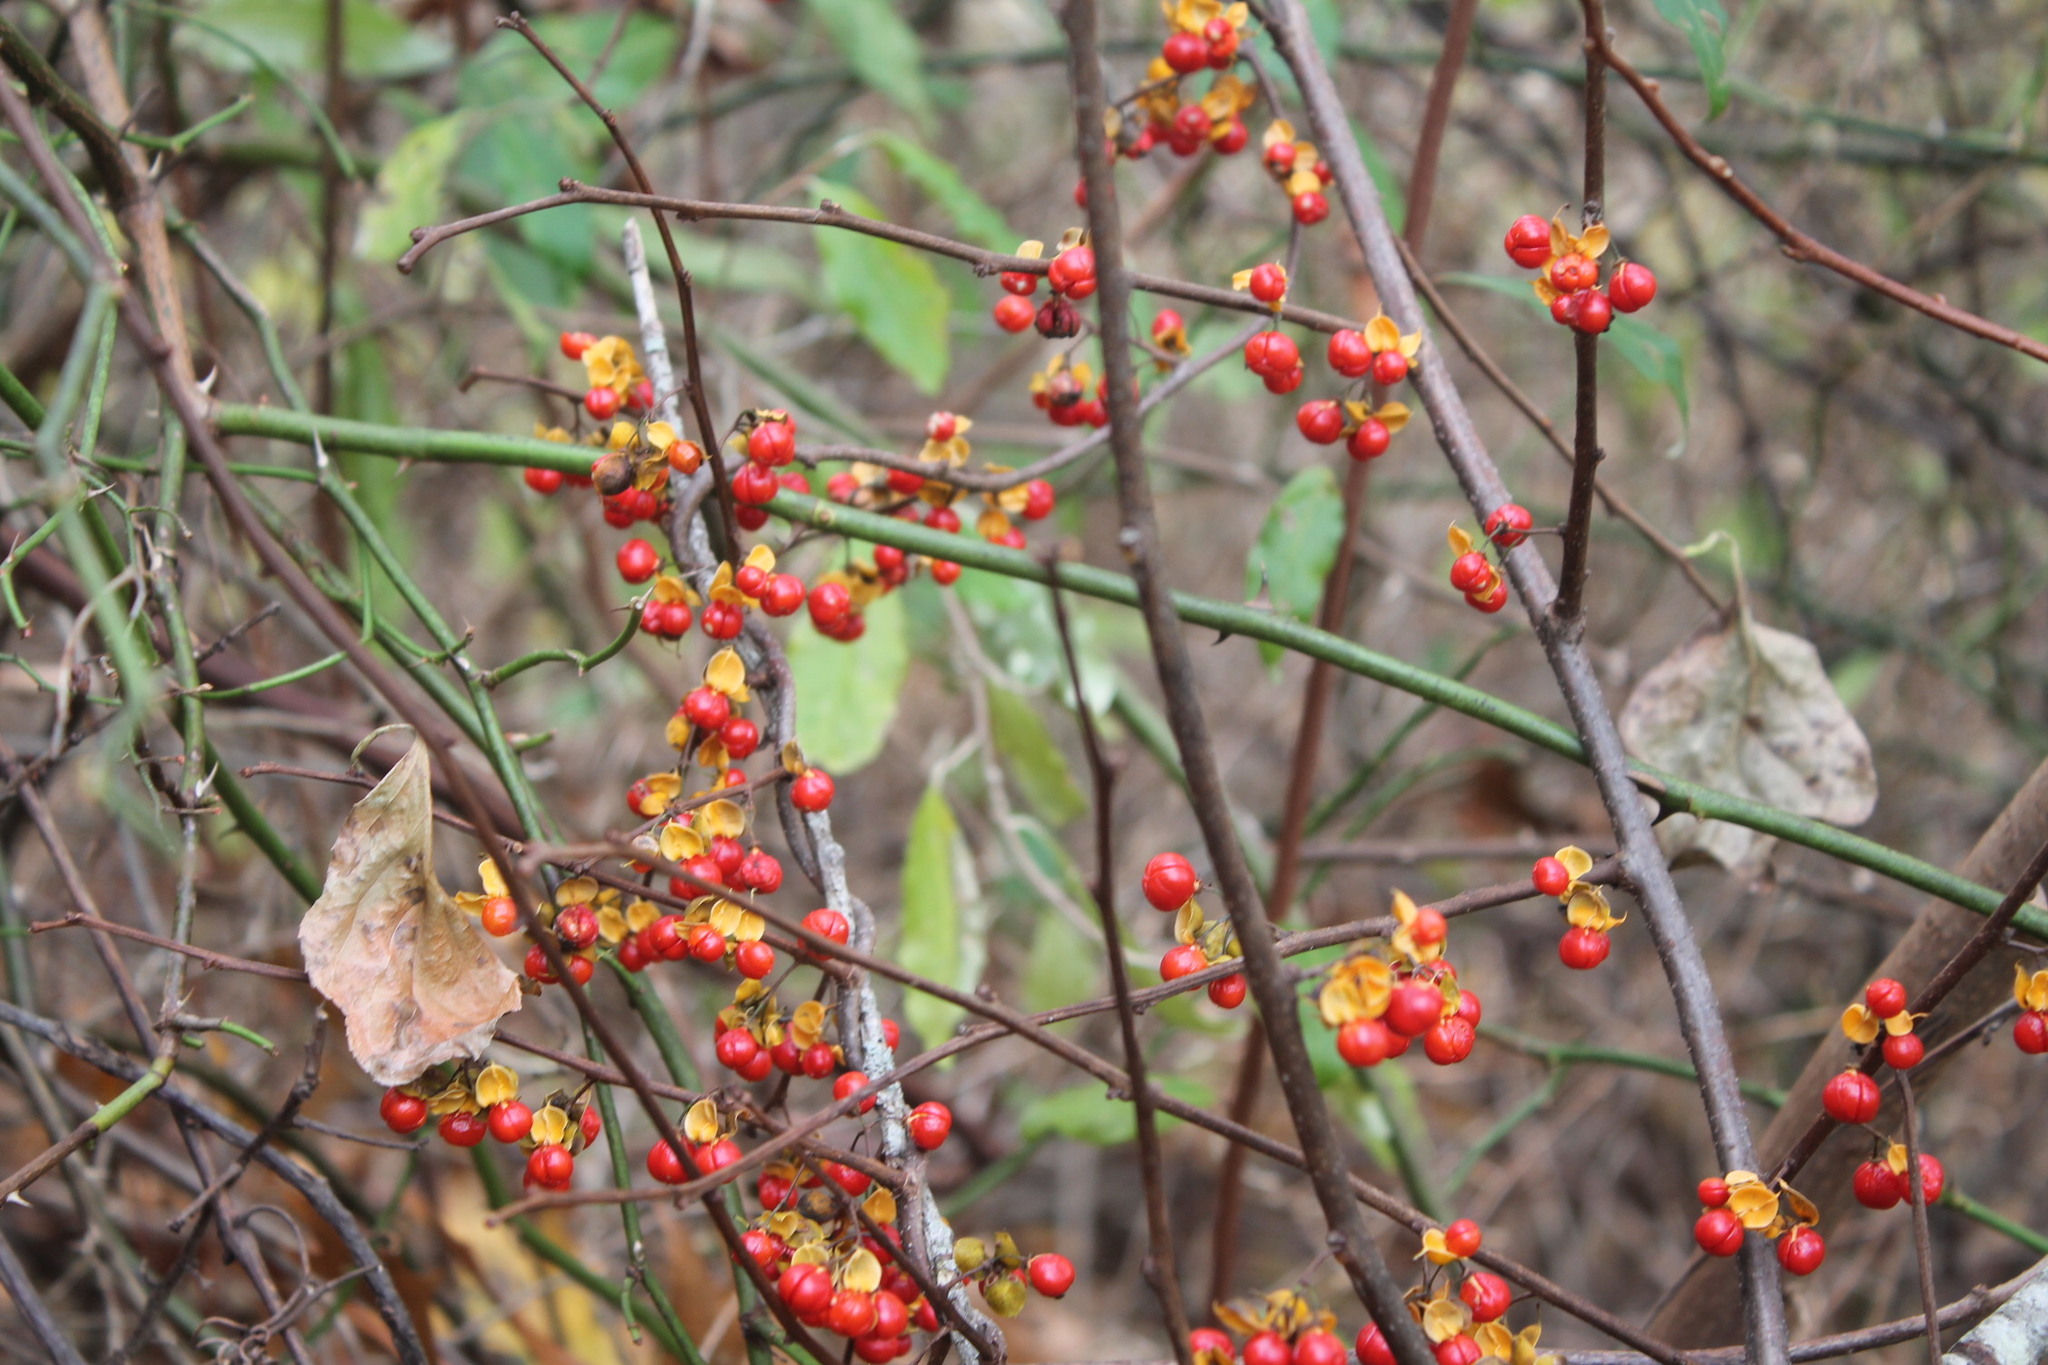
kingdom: Plantae
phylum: Tracheophyta
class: Magnoliopsida
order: Celastrales
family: Celastraceae
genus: Celastrus
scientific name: Celastrus orbiculatus
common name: Oriental bittersweet
